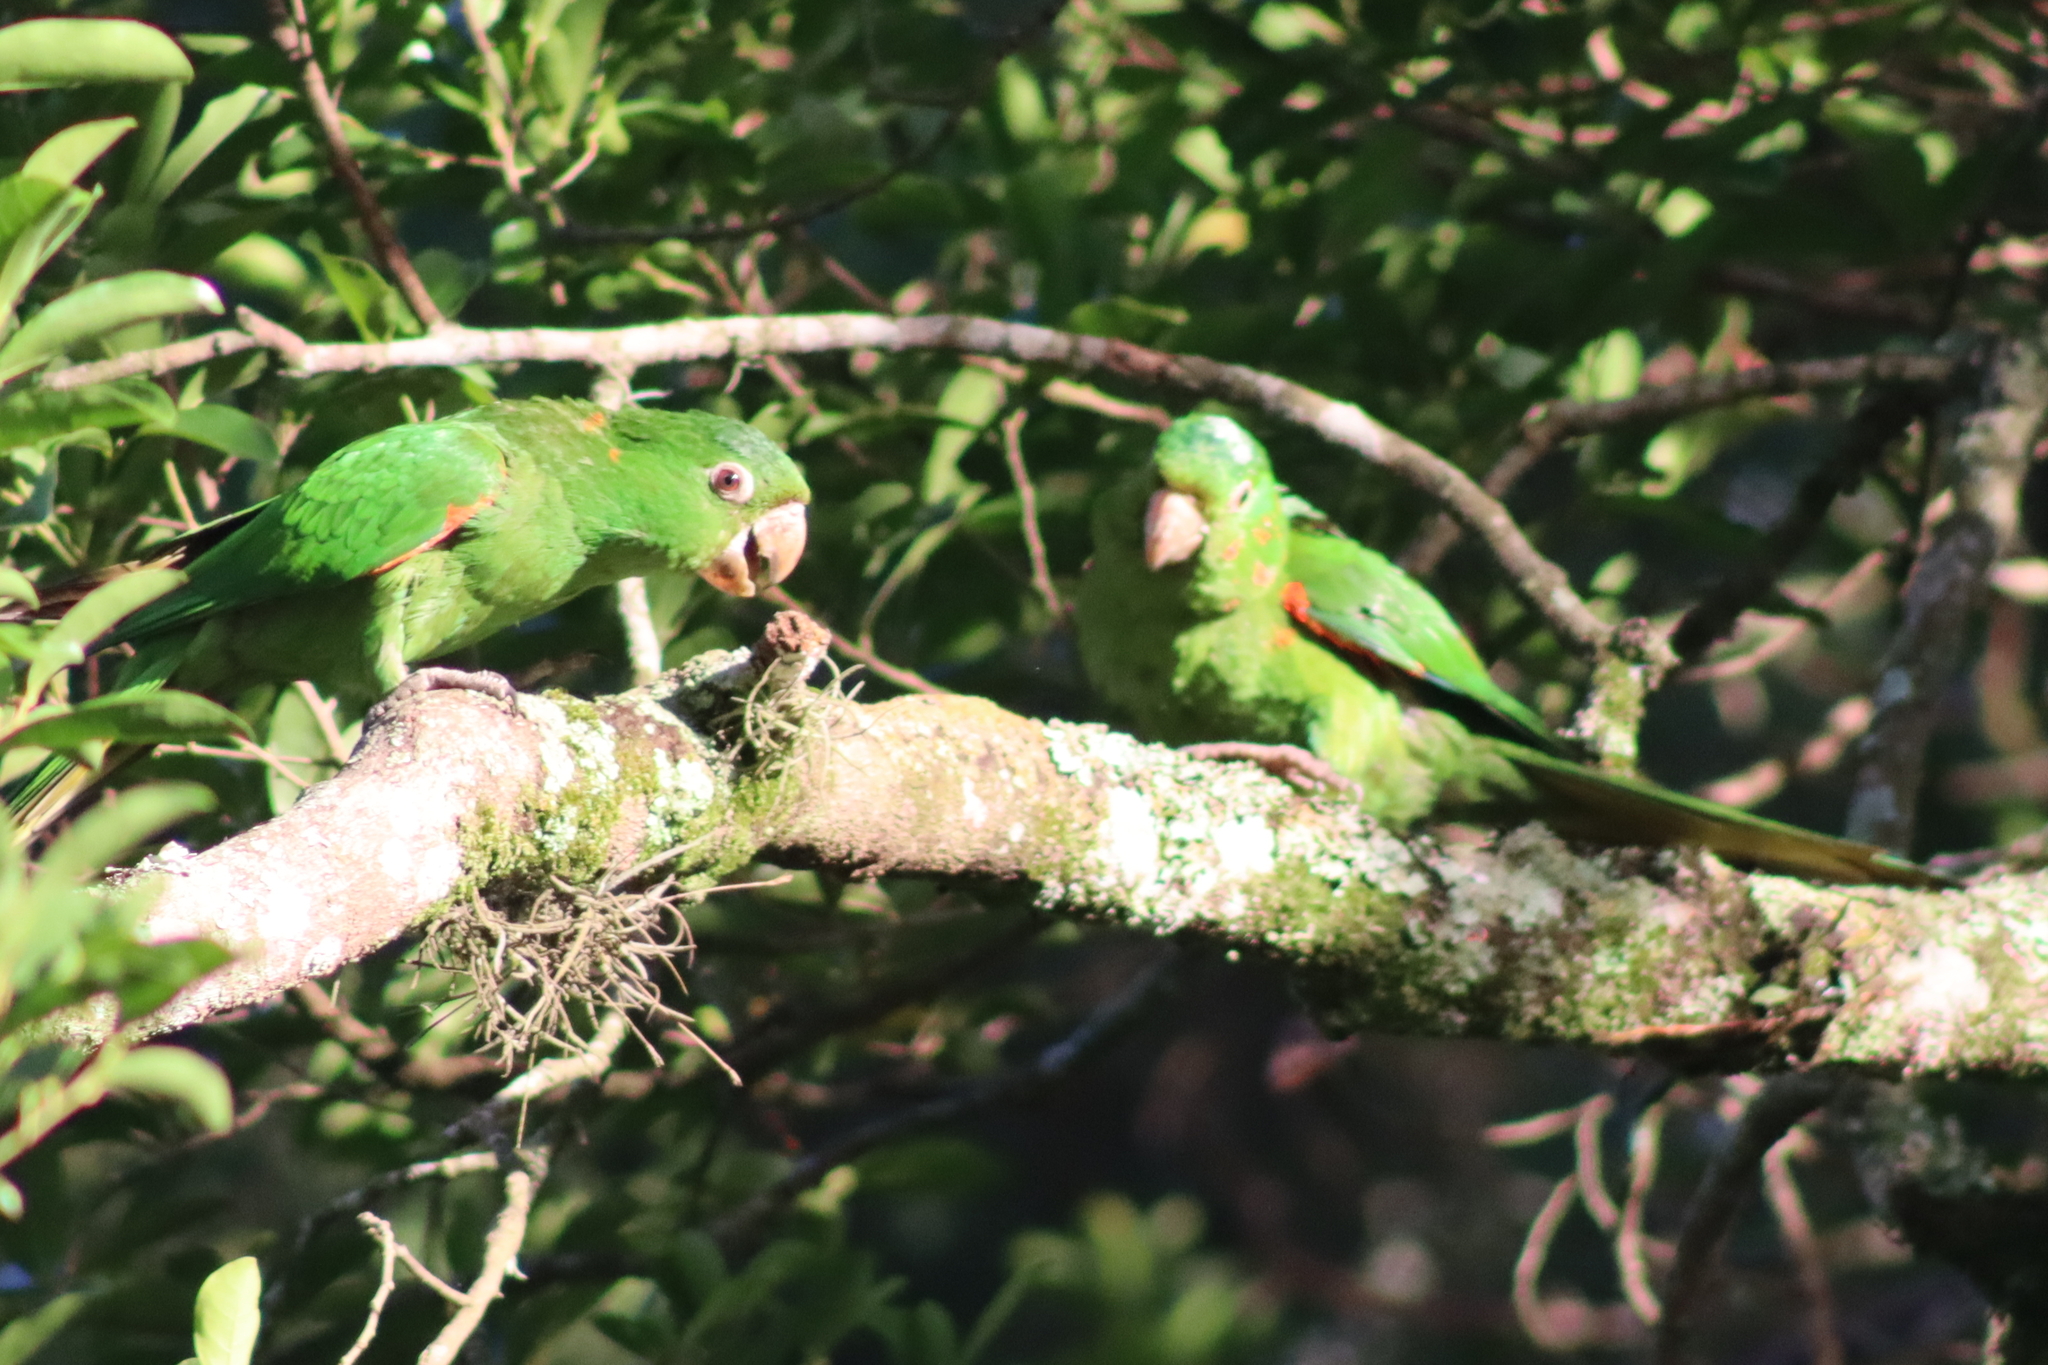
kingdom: Animalia
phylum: Chordata
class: Aves
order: Psittaciformes
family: Psittacidae
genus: Aratinga
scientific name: Aratinga leucophthalma
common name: White-eyed parakeet
